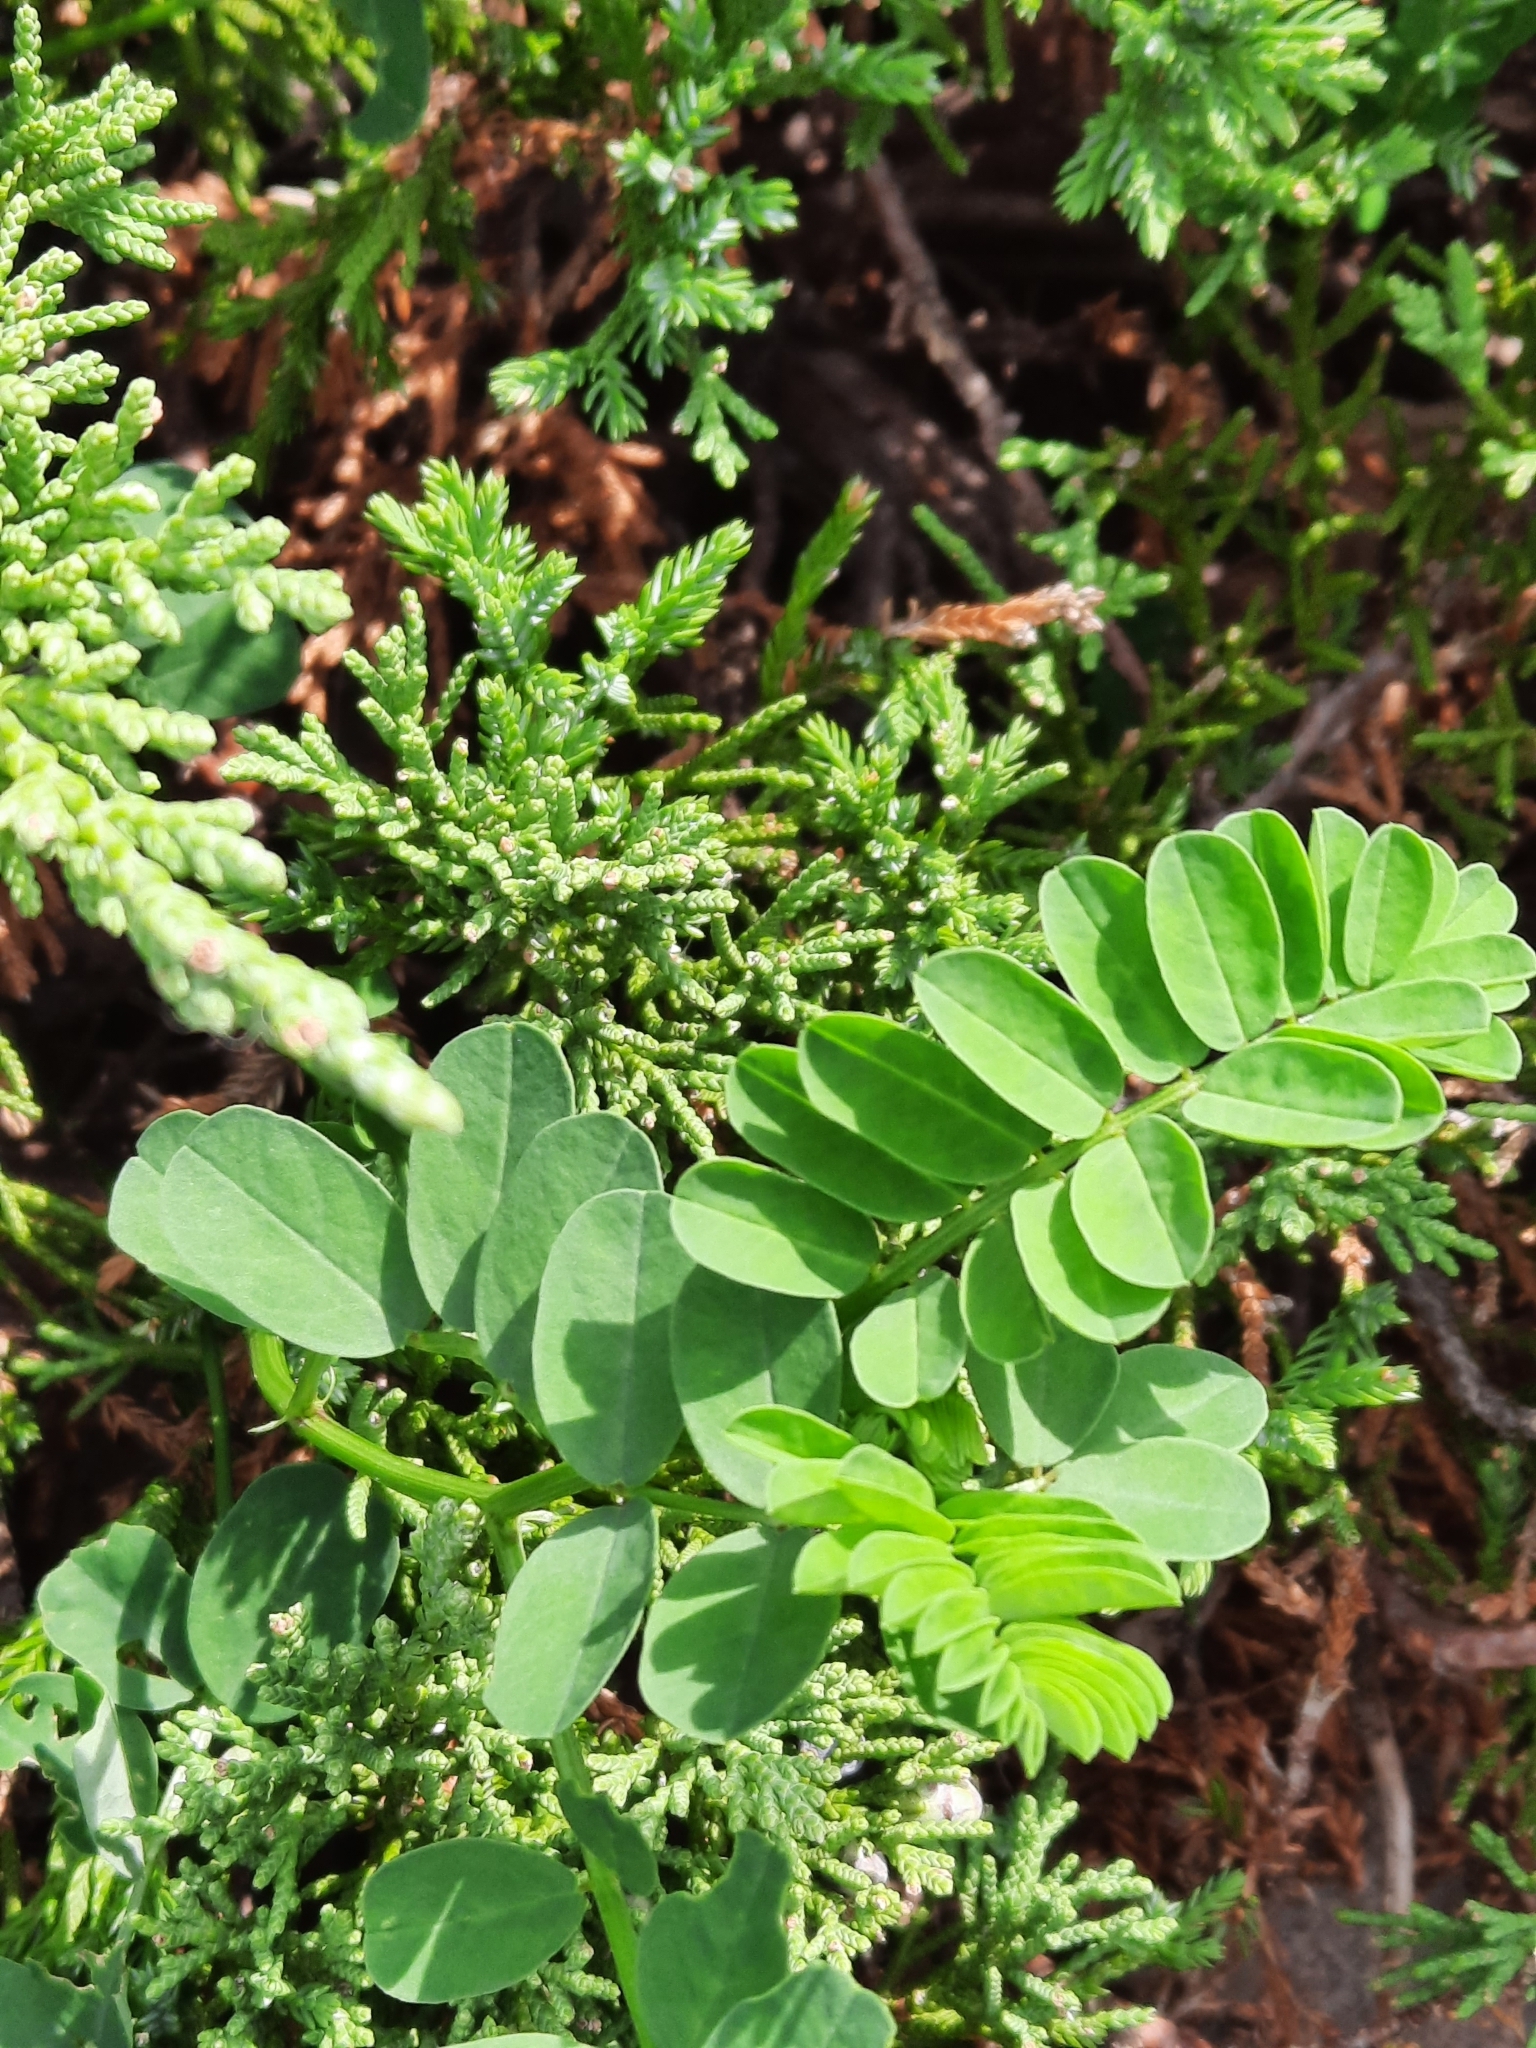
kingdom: Plantae
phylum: Tracheophyta
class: Magnoliopsida
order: Fabales
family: Fabaceae
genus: Coronilla
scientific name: Coronilla varia
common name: Crownvetch
